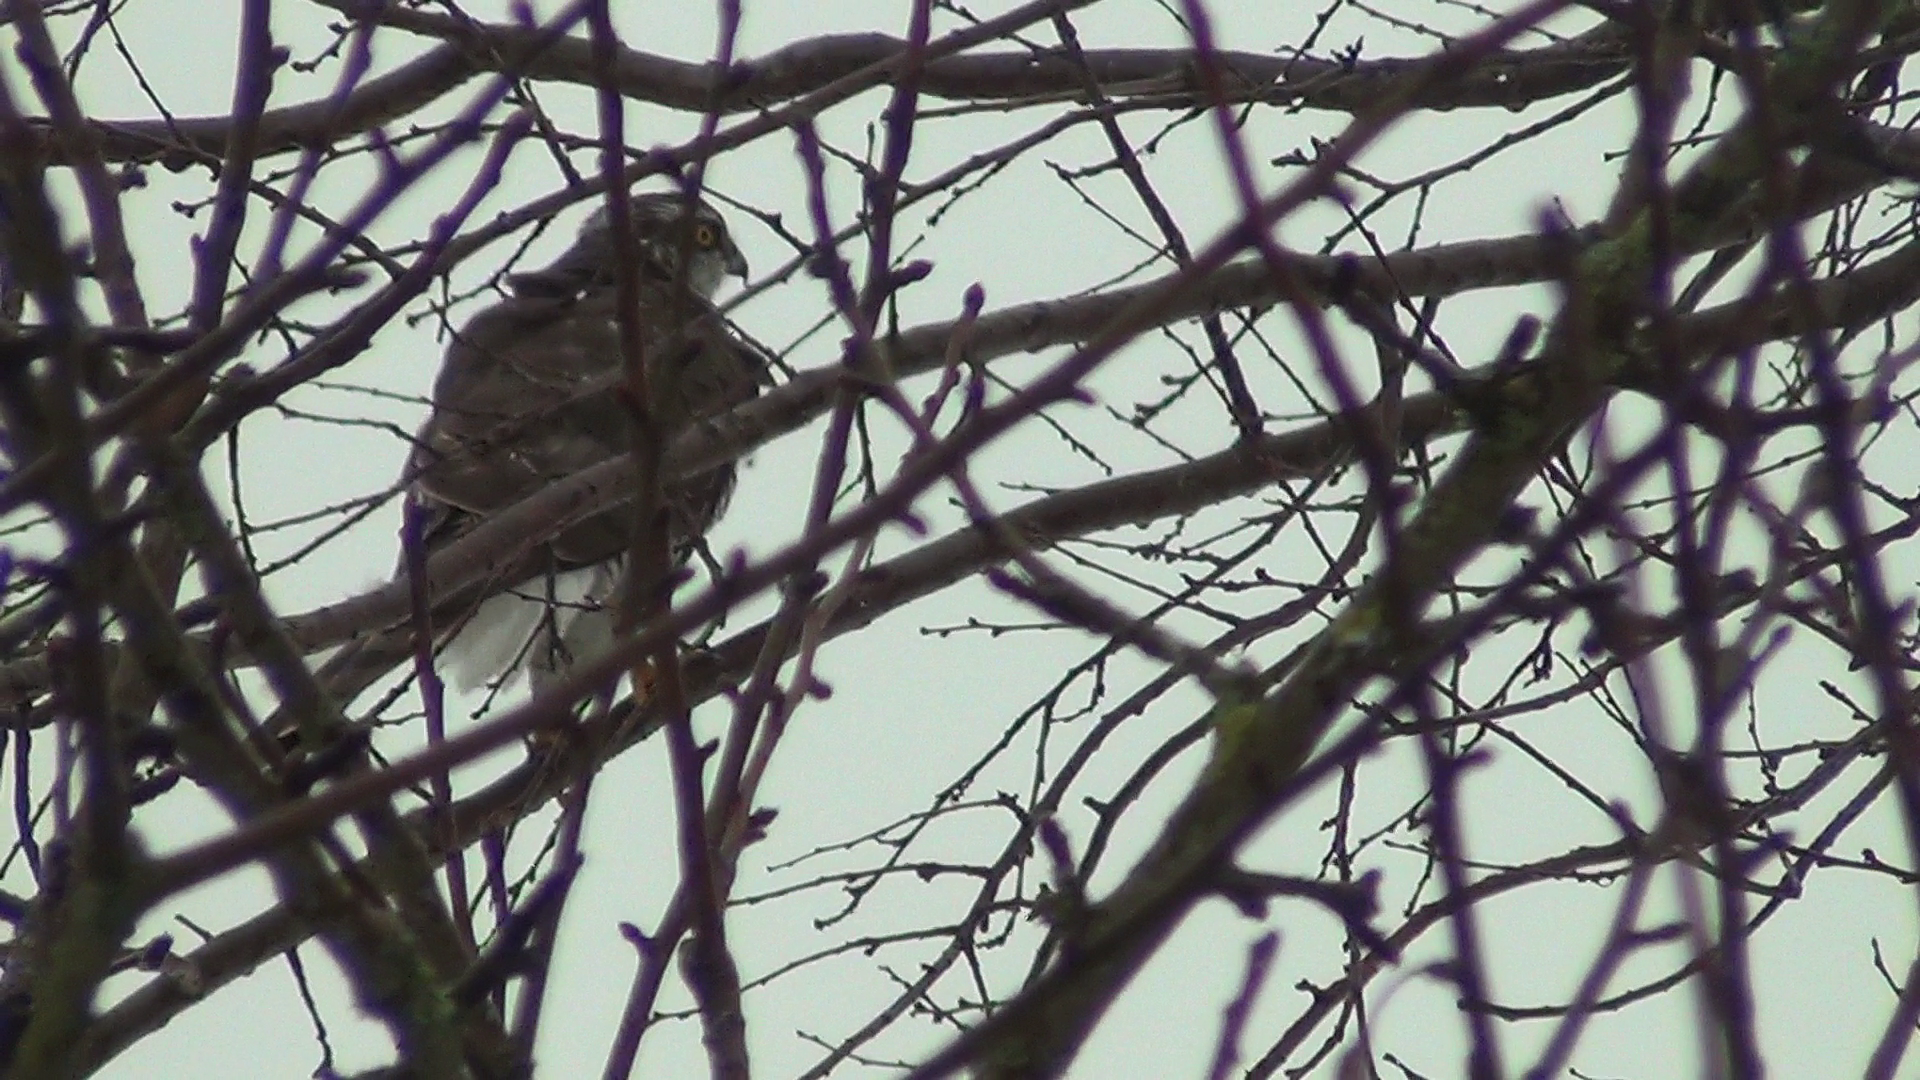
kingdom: Animalia
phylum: Chordata
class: Aves
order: Accipitriformes
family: Accipitridae
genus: Accipiter
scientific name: Accipiter nisus
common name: Eurasian sparrowhawk
